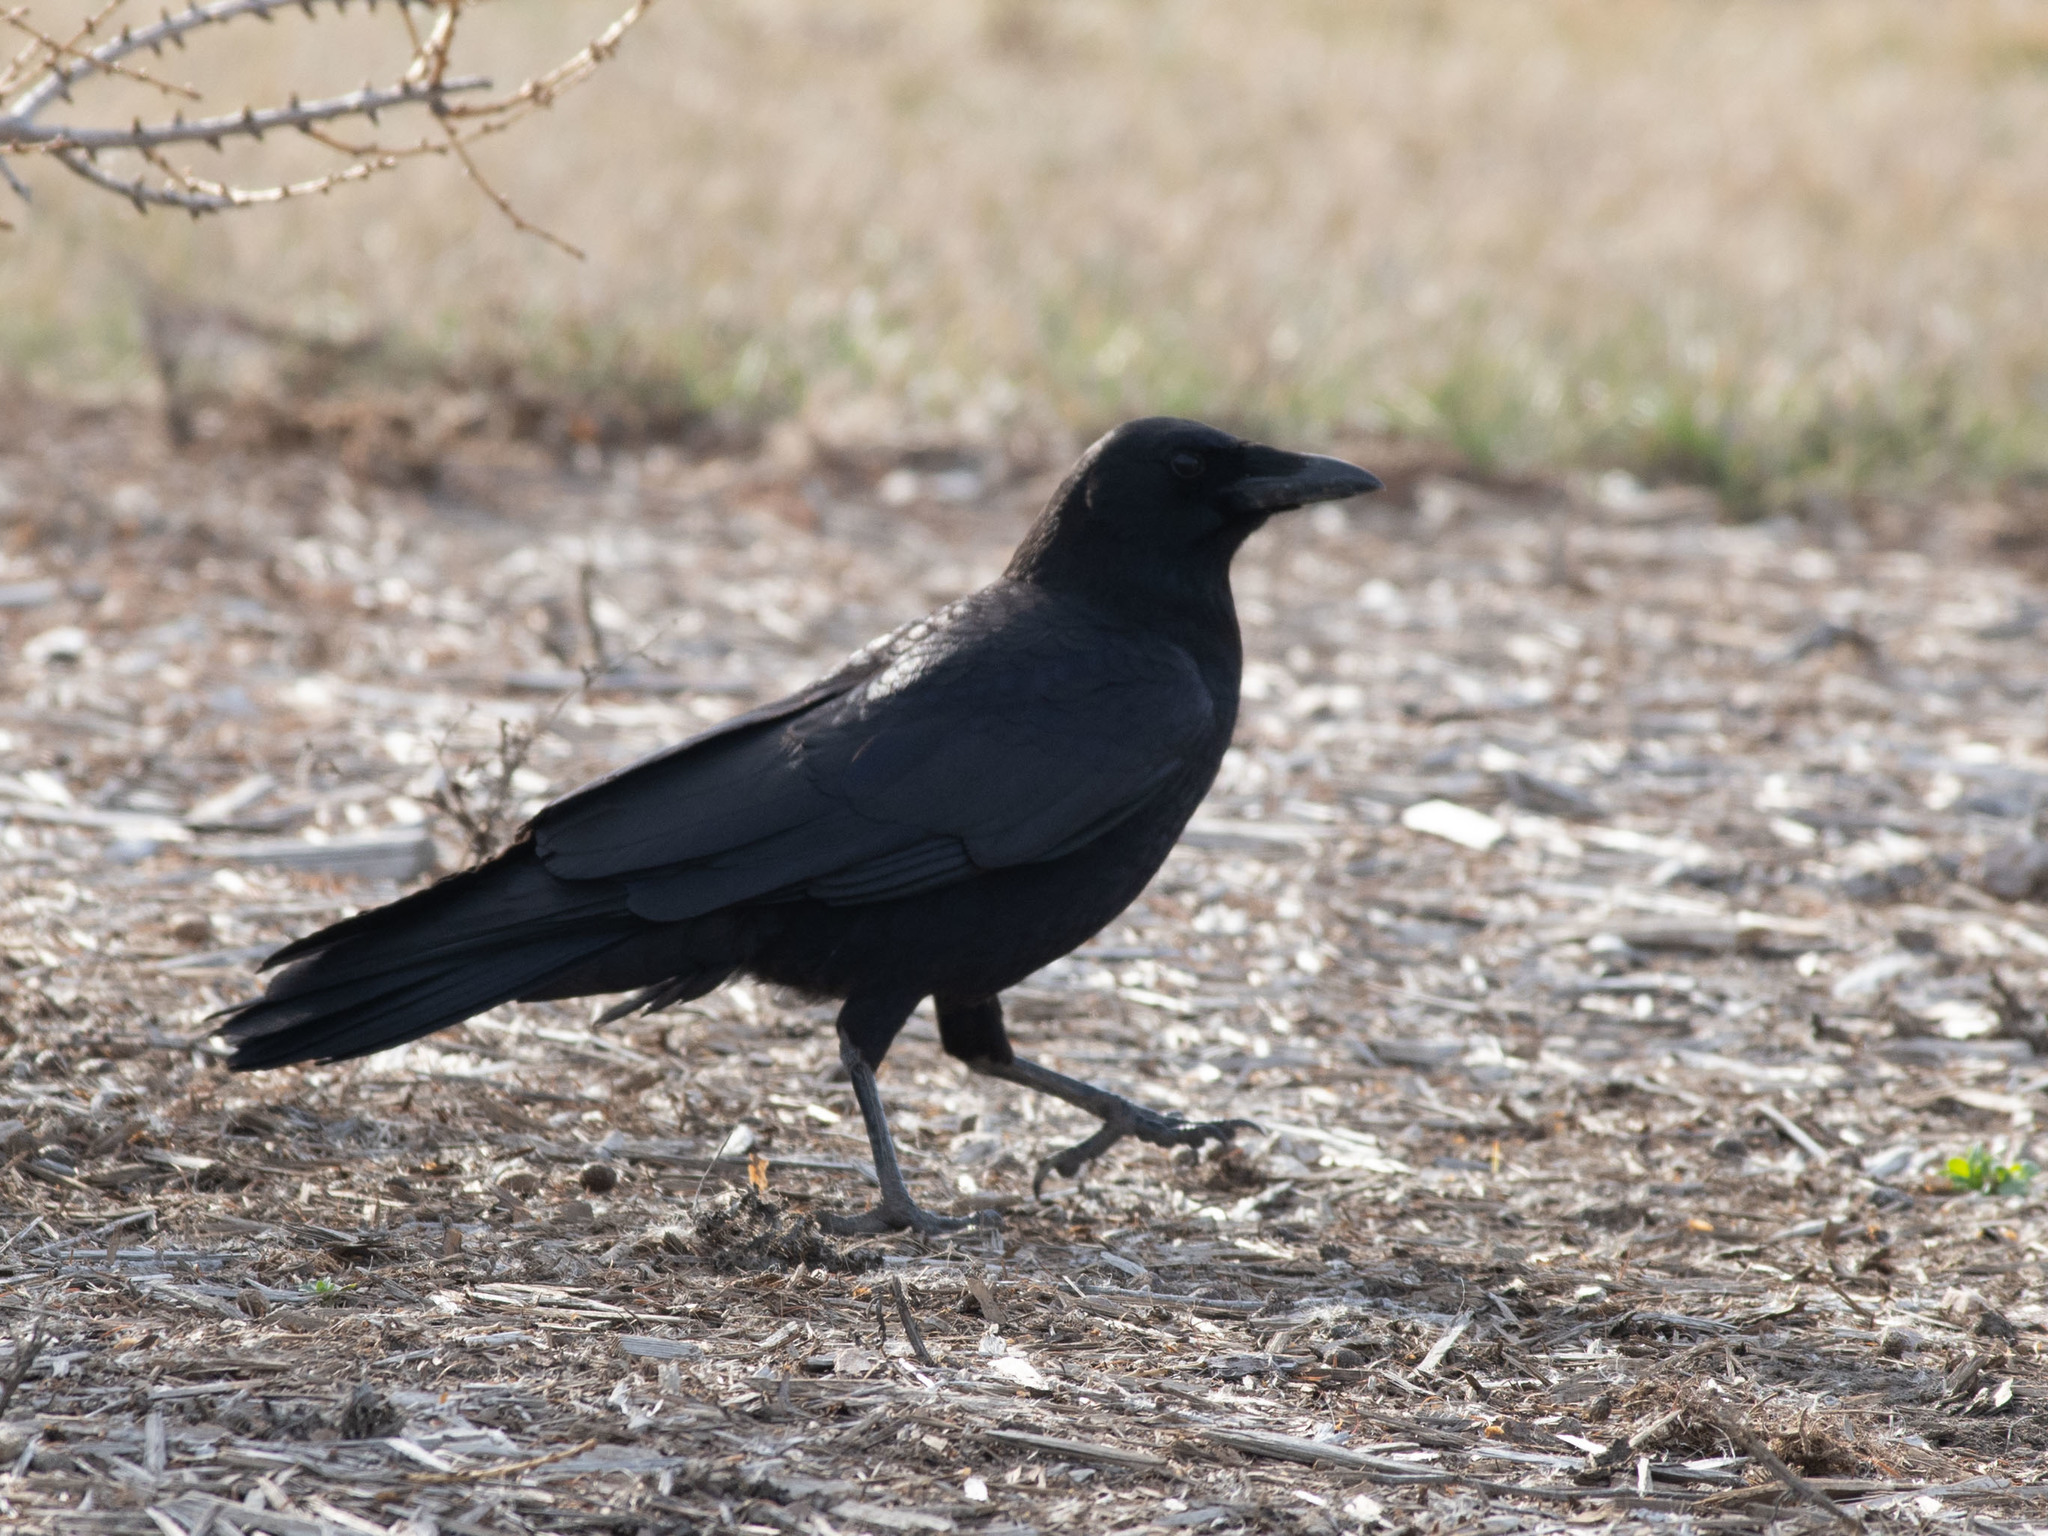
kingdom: Animalia
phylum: Chordata
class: Aves
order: Passeriformes
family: Corvidae
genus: Corvus
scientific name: Corvus brachyrhynchos
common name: American crow
